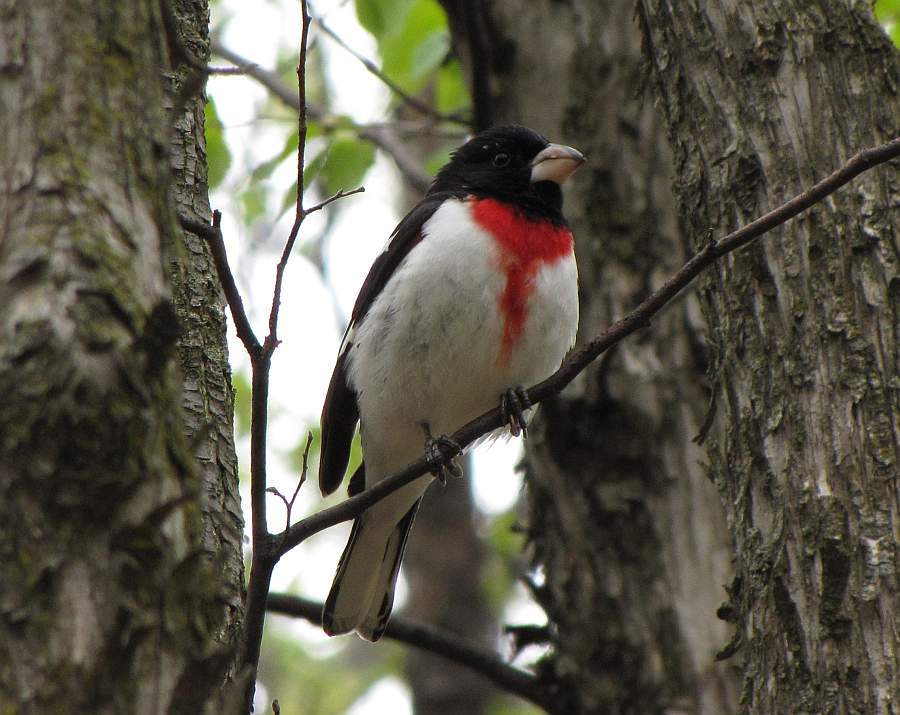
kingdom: Animalia
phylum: Chordata
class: Aves
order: Passeriformes
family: Cardinalidae
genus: Pheucticus
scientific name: Pheucticus ludovicianus
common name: Rose-breasted grosbeak
